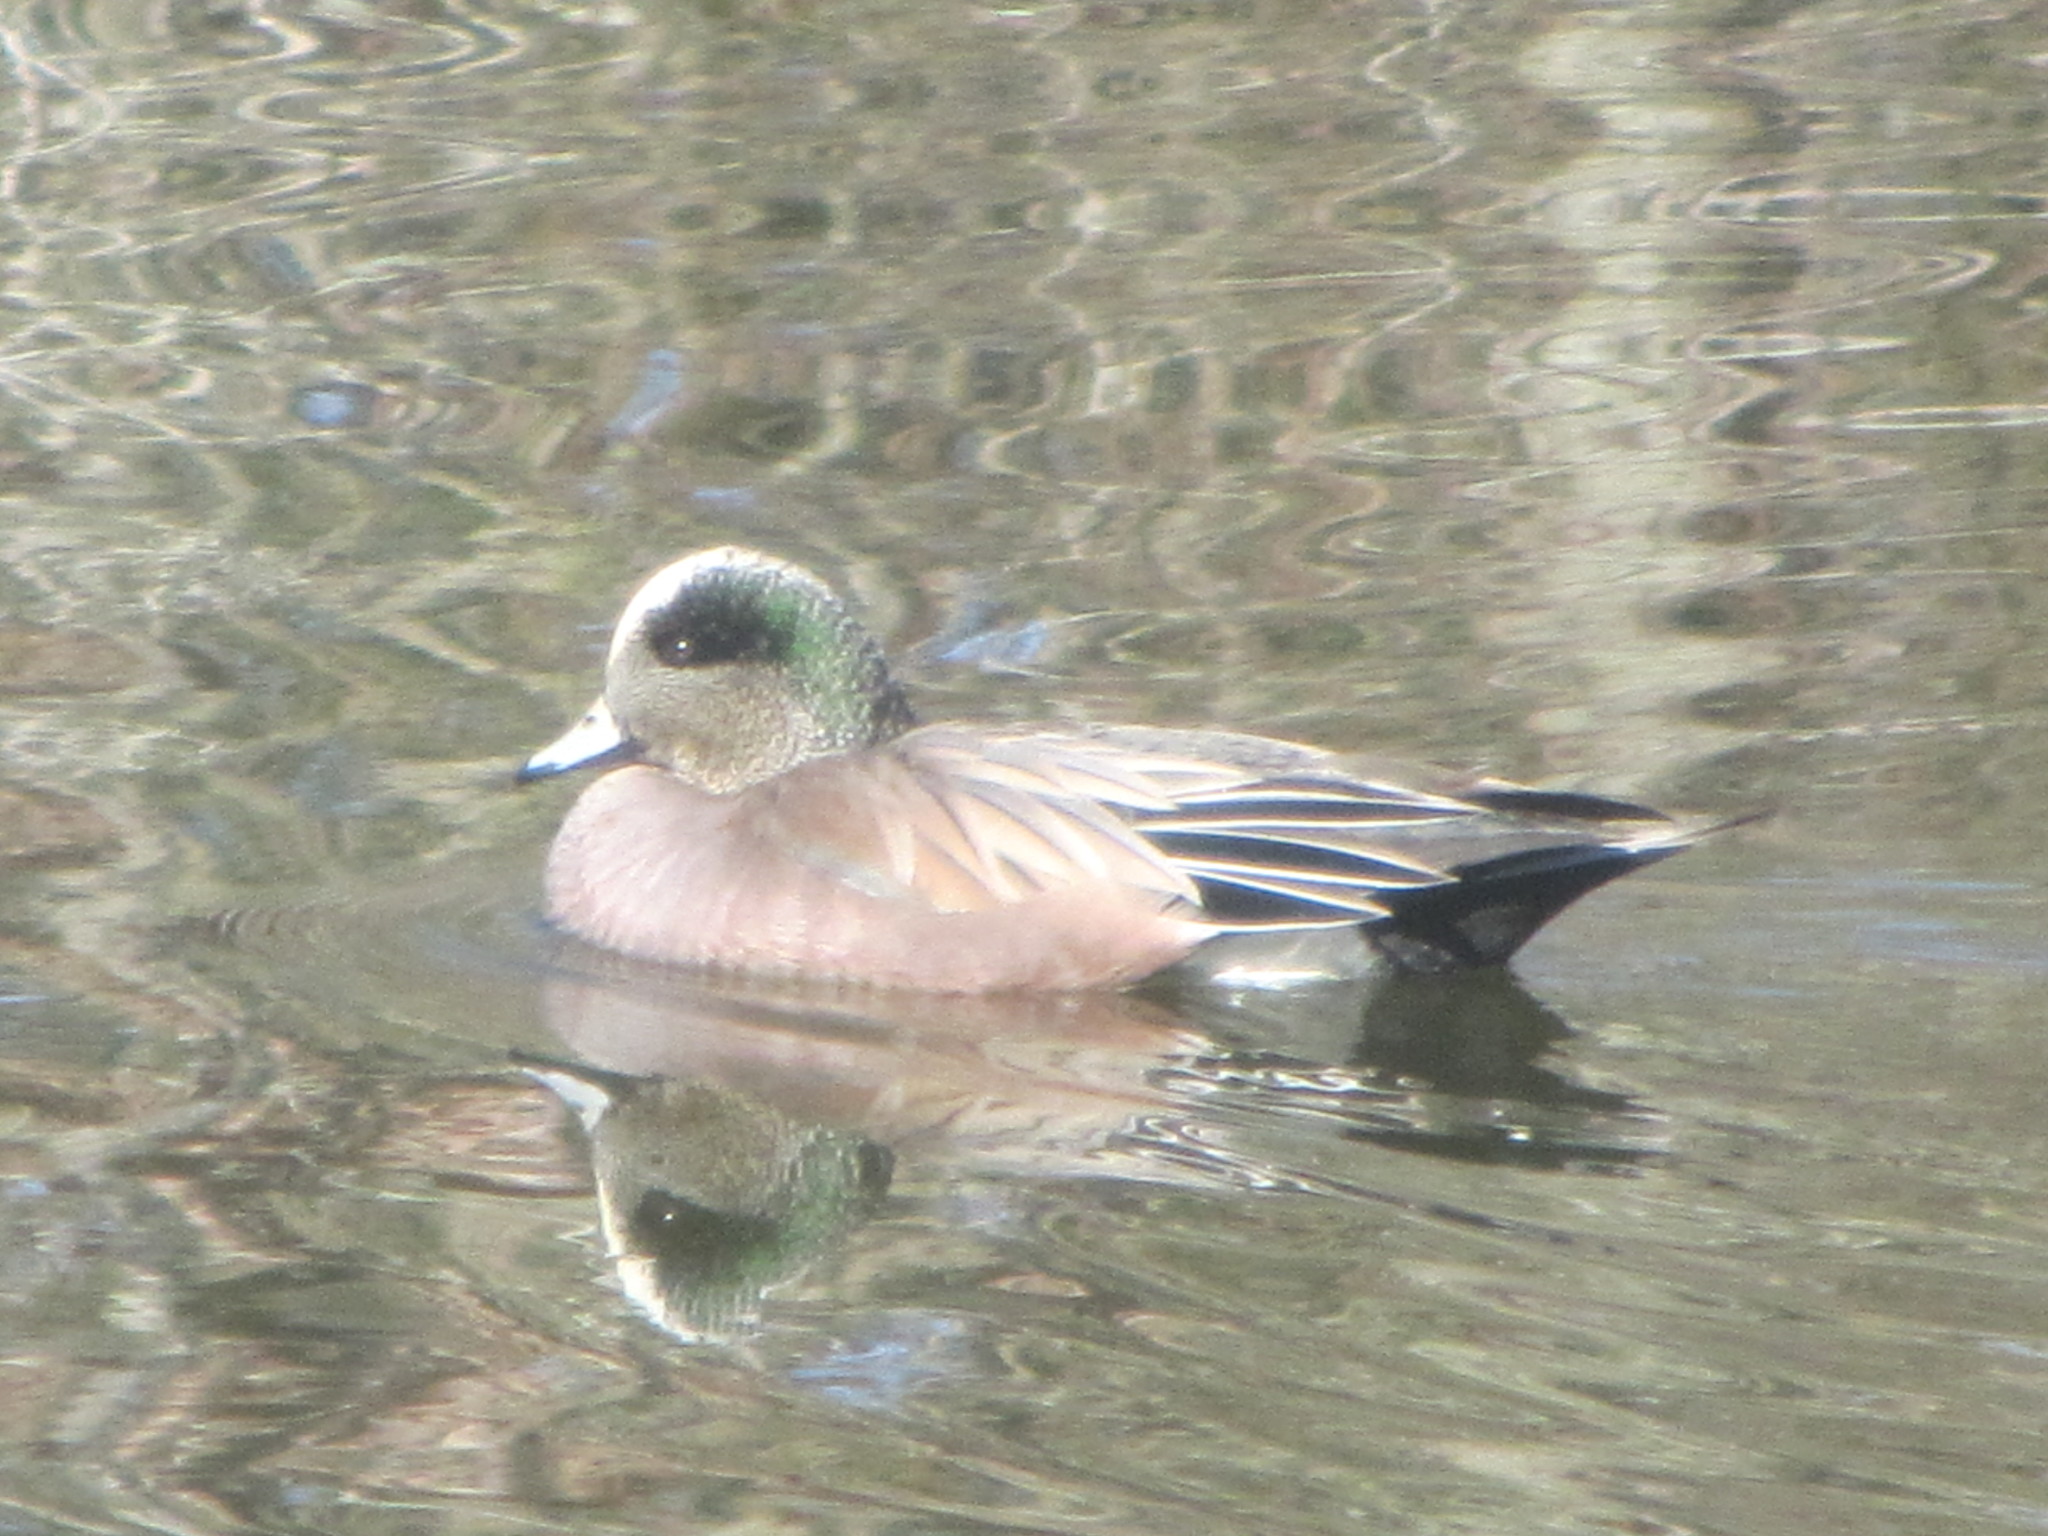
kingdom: Animalia
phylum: Chordata
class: Aves
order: Anseriformes
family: Anatidae
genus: Mareca
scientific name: Mareca americana
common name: American wigeon
